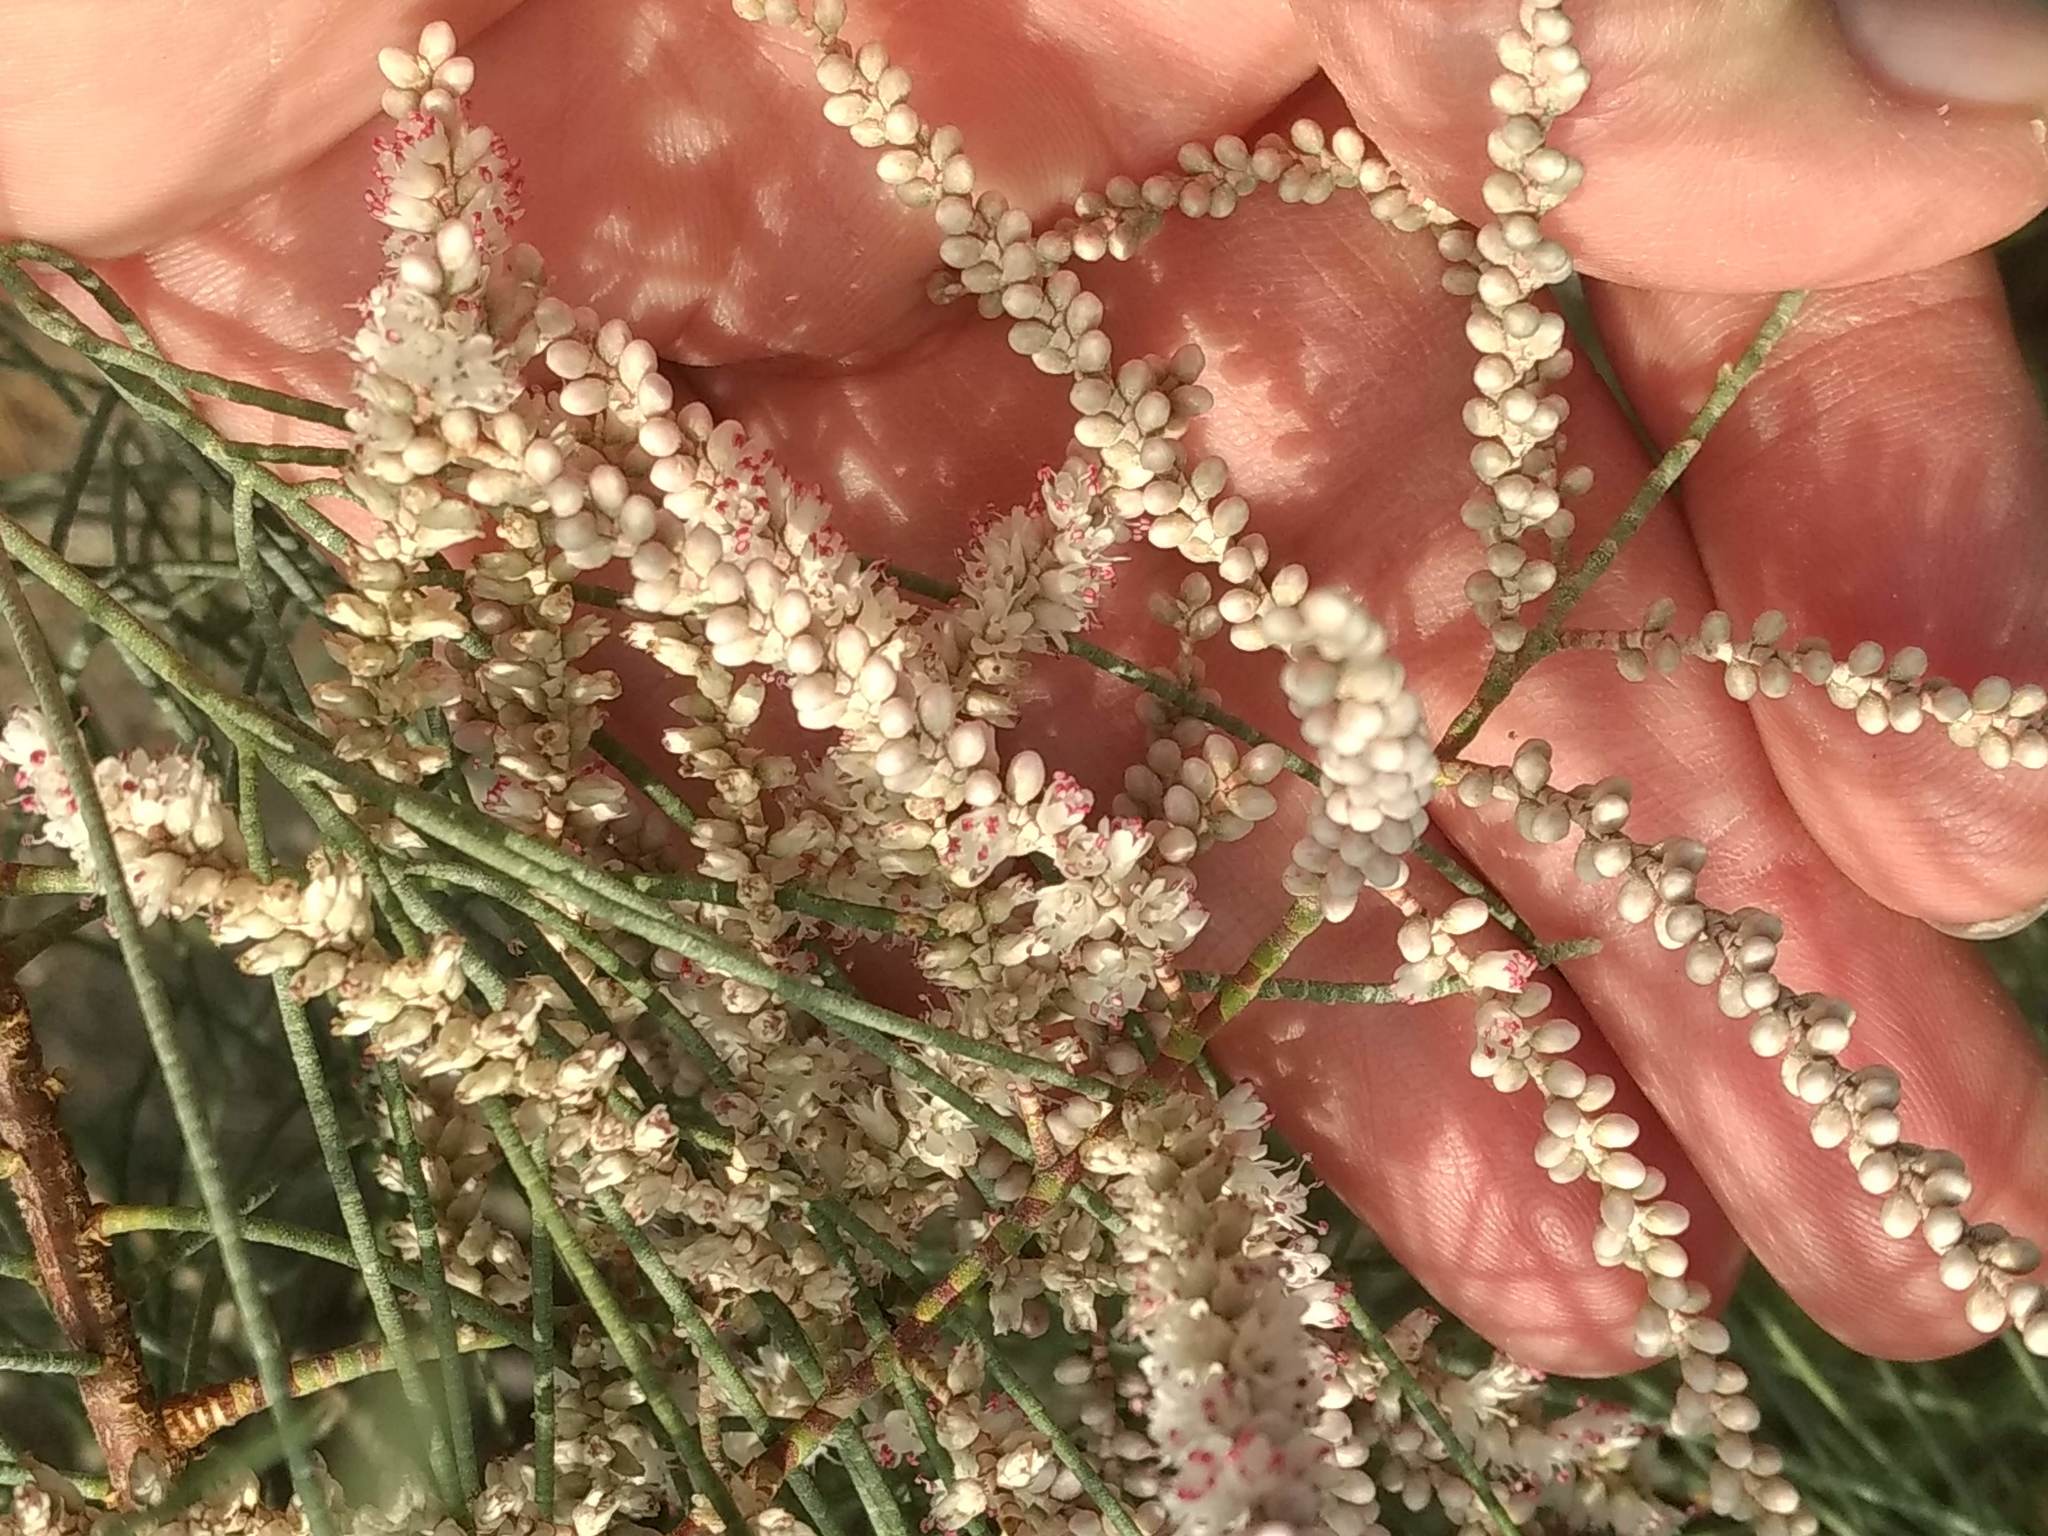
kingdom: Plantae
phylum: Tracheophyta
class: Magnoliopsida
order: Caryophyllales
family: Tamaricaceae
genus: Tamarix
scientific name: Tamarix aphylla
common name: Athel tamarisk
